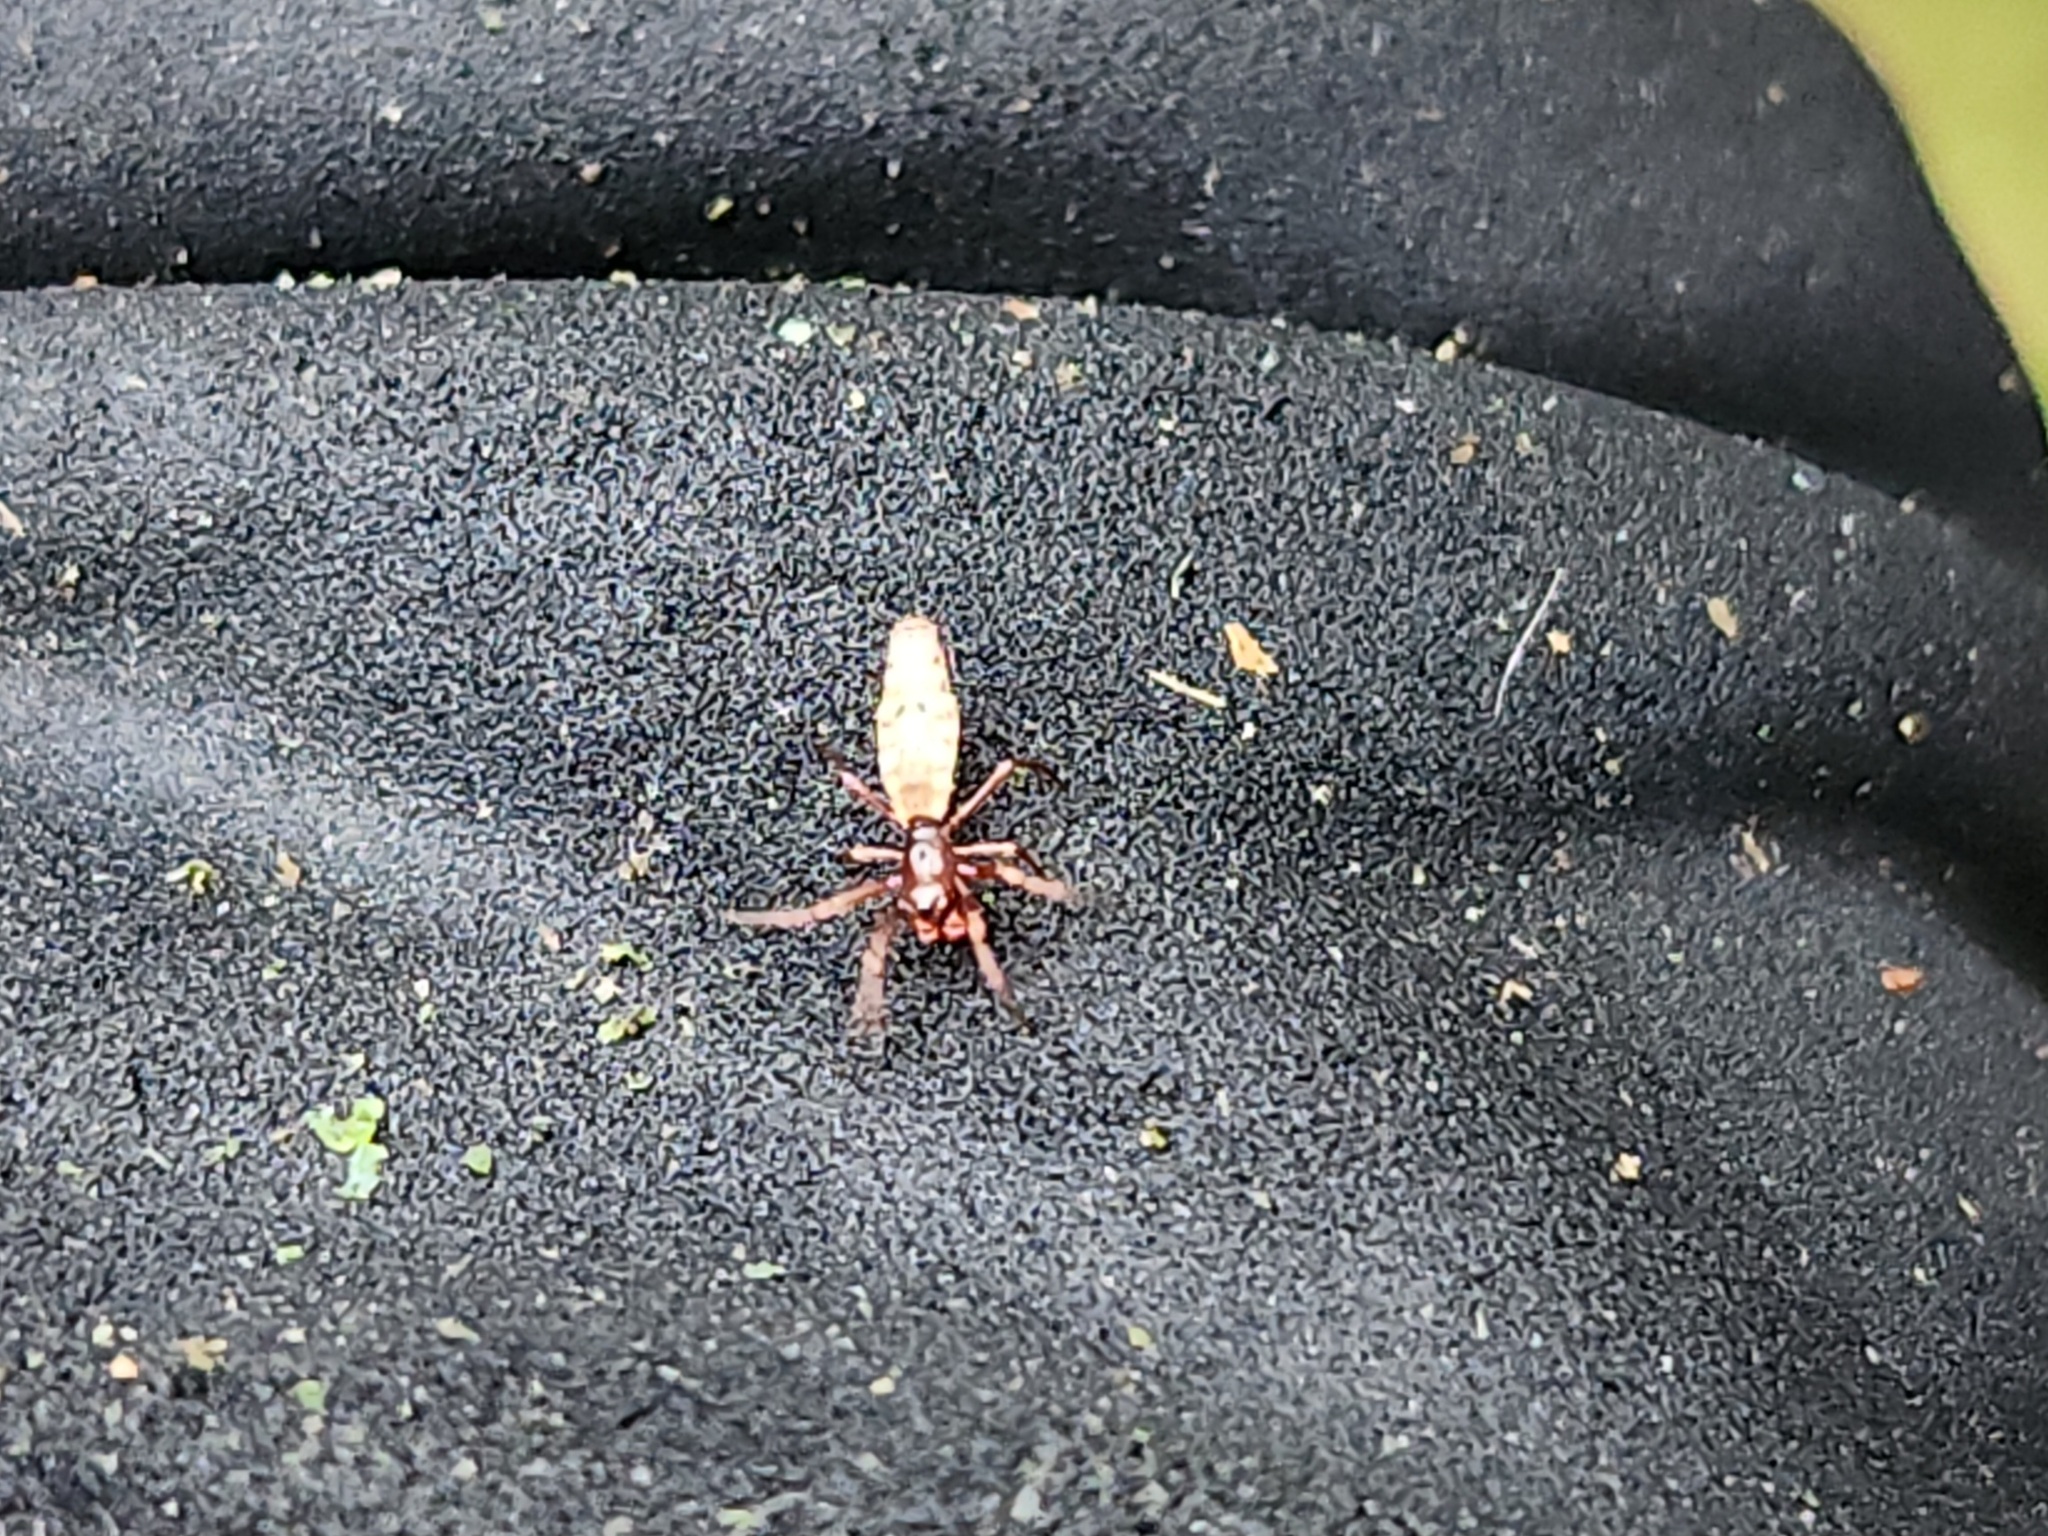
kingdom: Animalia
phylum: Arthropoda
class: Arachnida
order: Araneae
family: Araneidae
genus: Micrathena
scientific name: Micrathena gracilis
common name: Orb weavers
